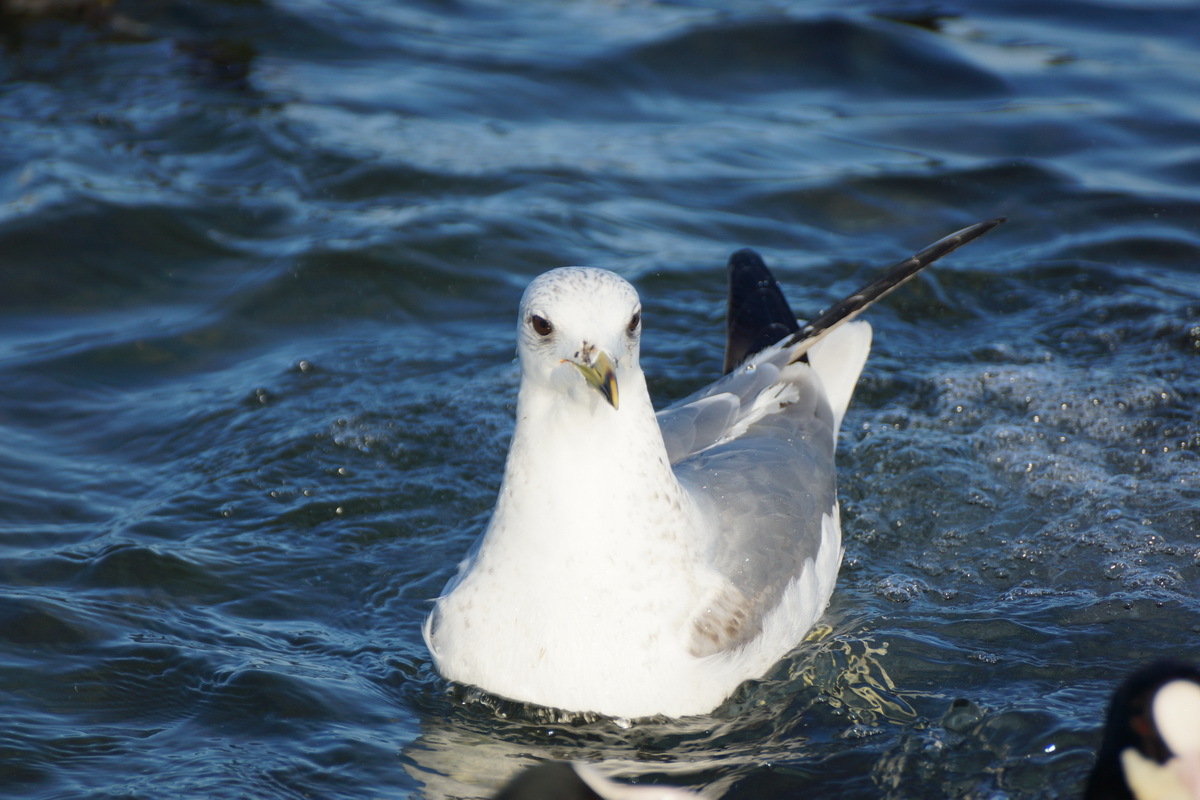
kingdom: Animalia
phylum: Chordata
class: Aves
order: Charadriiformes
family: Laridae
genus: Larus
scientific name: Larus canus
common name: Mew gull
